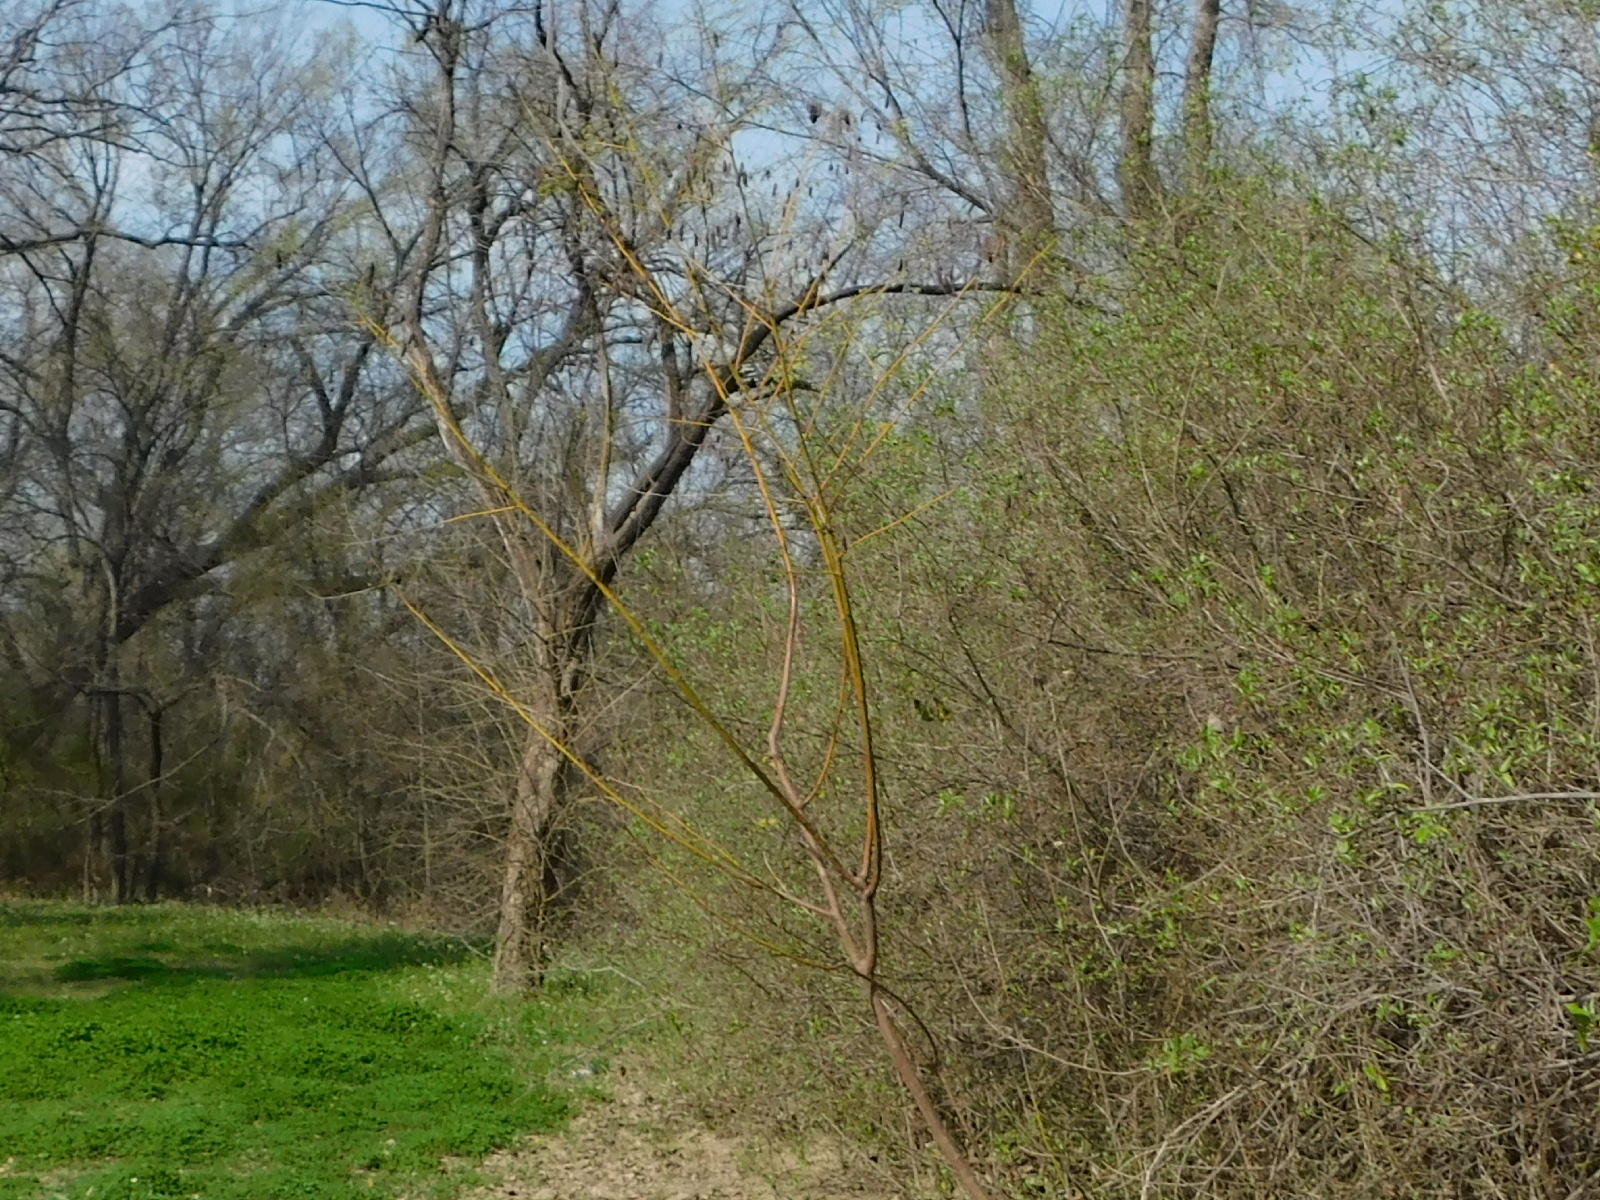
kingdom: Plantae
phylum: Tracheophyta
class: Magnoliopsida
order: Fabales
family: Fabaceae
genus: Sesbania
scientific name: Sesbania drummondii
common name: Poison-bean
